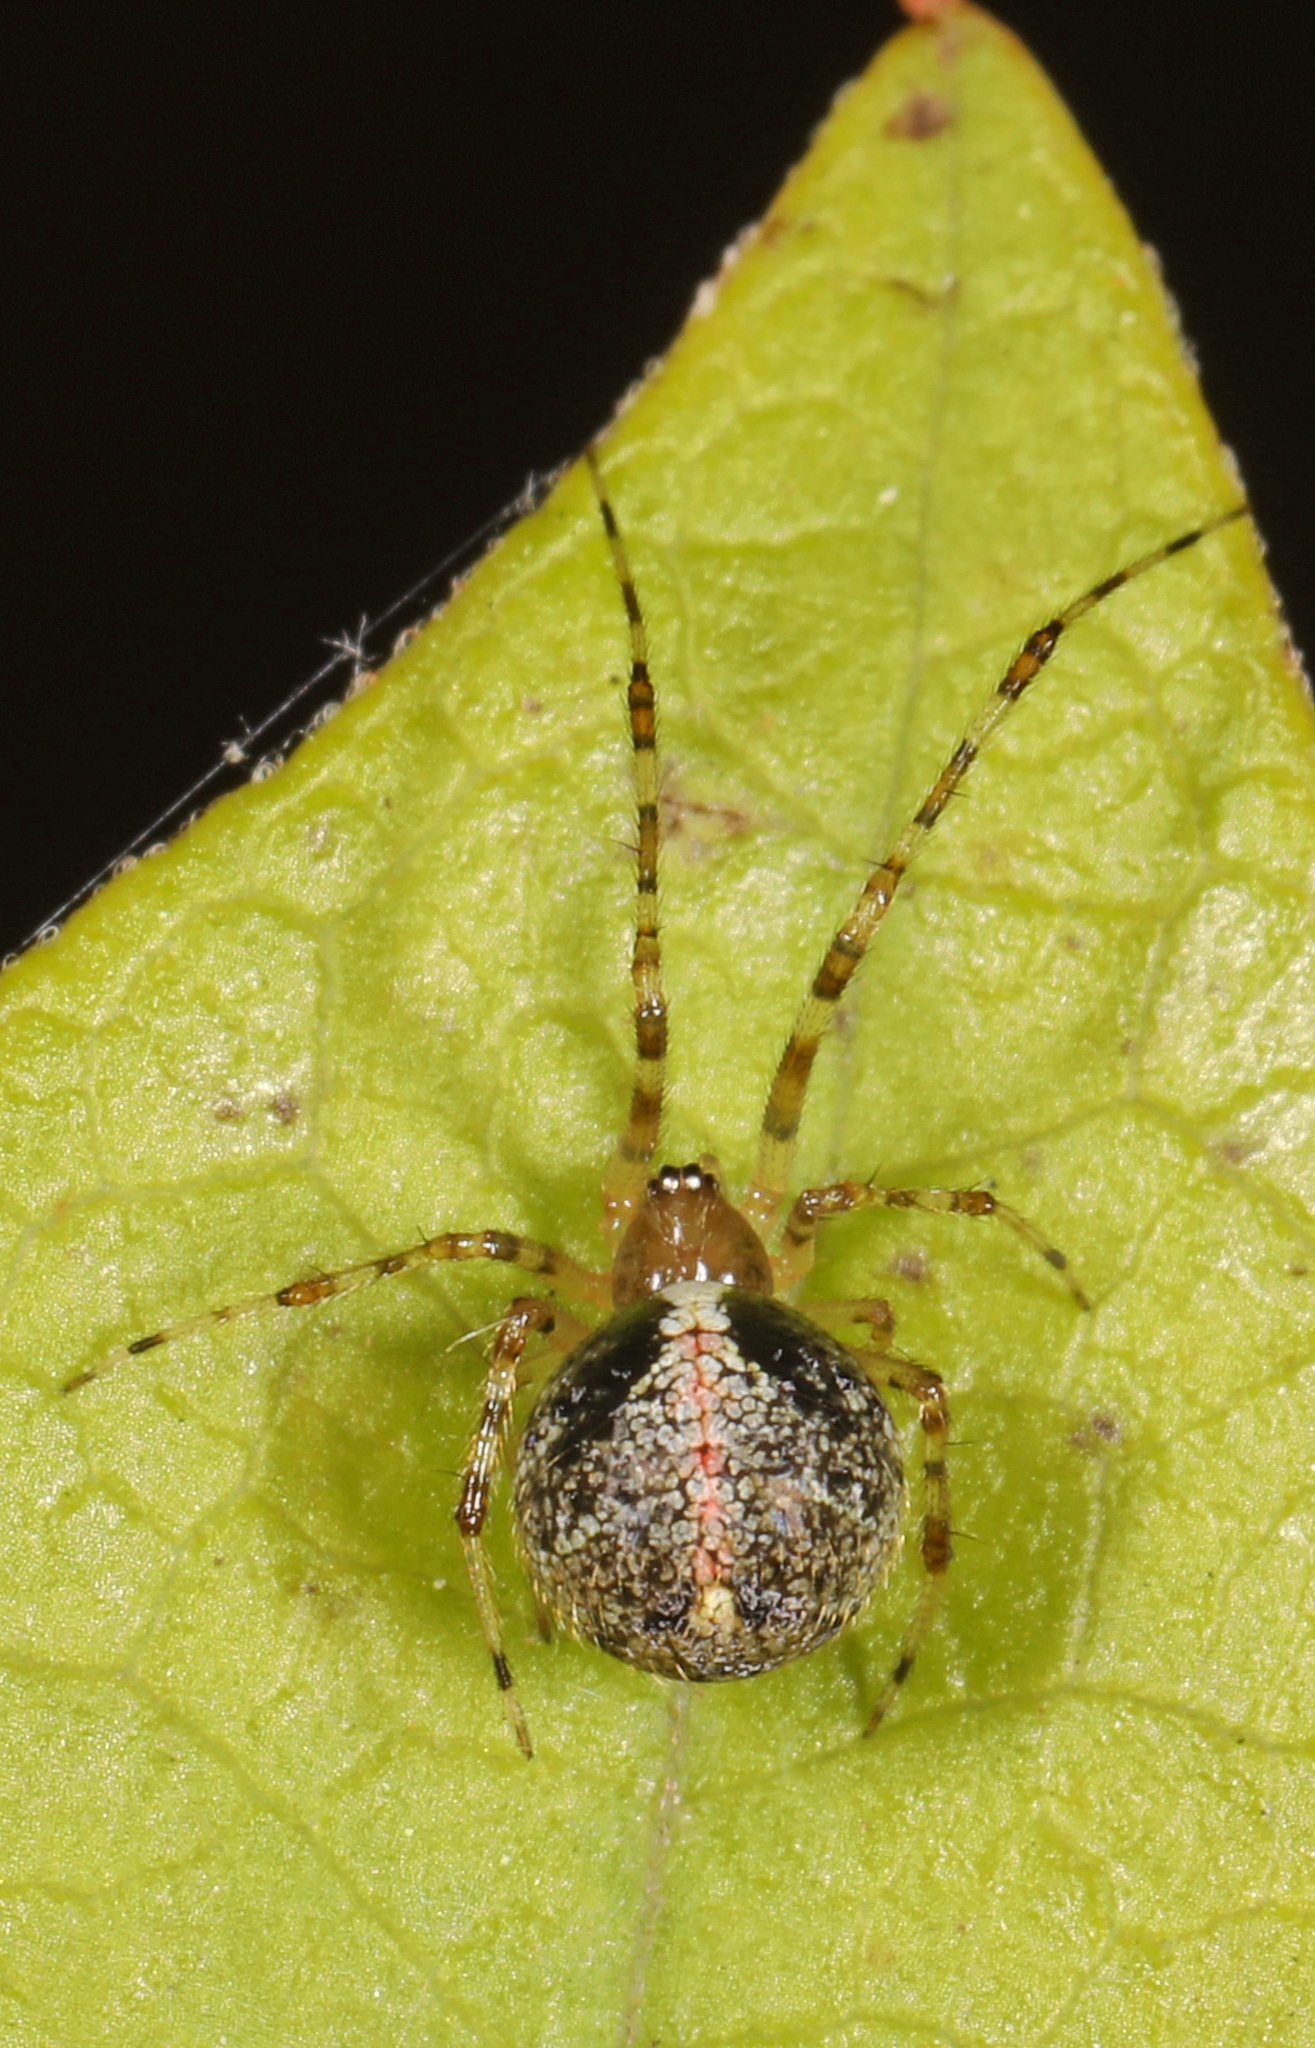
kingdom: Animalia
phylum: Arthropoda
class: Arachnida
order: Araneae
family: Theridiidae
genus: Yunohamella
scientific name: Yunohamella lyrica
